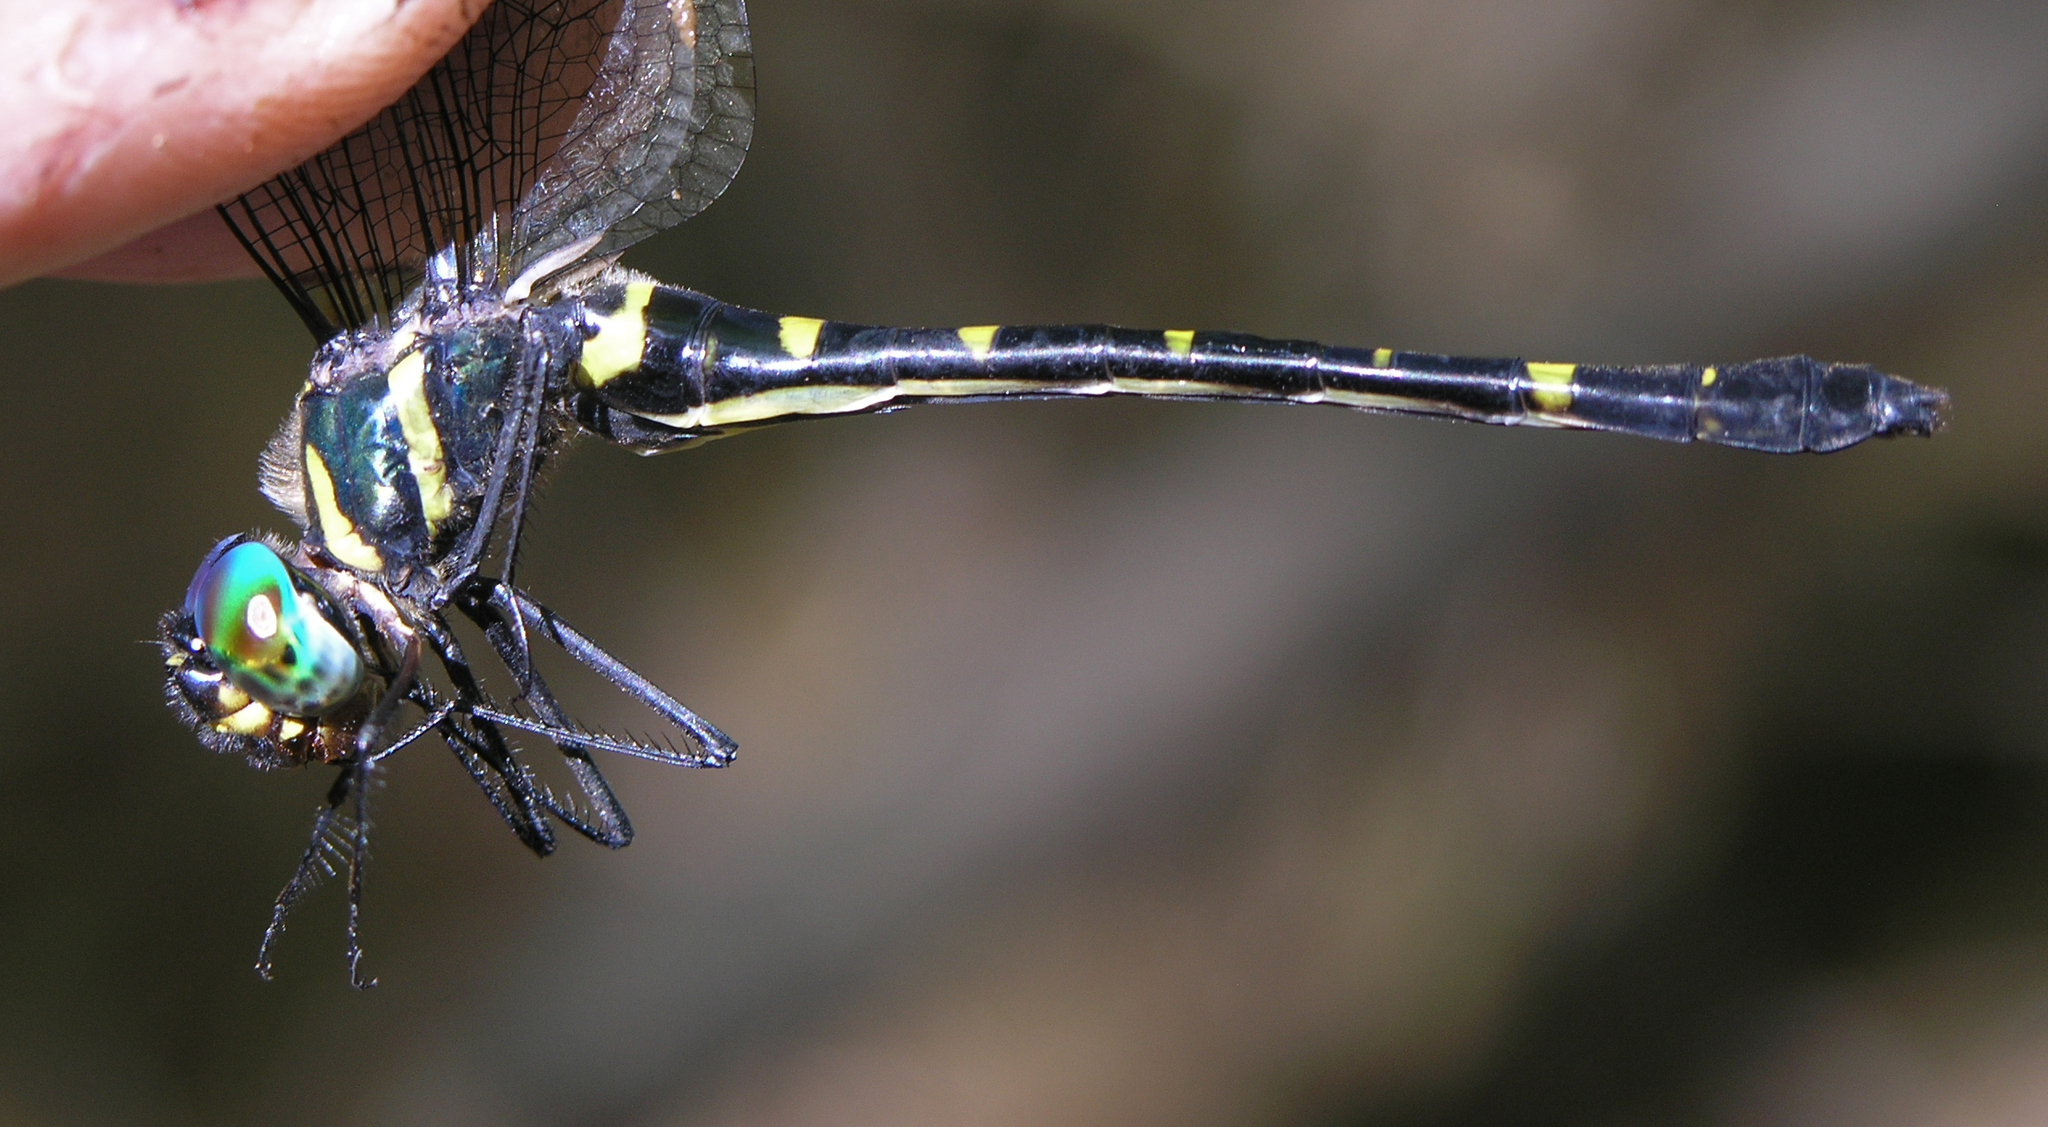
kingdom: Animalia
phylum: Arthropoda
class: Insecta
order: Odonata
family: Macromiidae
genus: Macromia
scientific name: Macromia chaiyaphumensis
